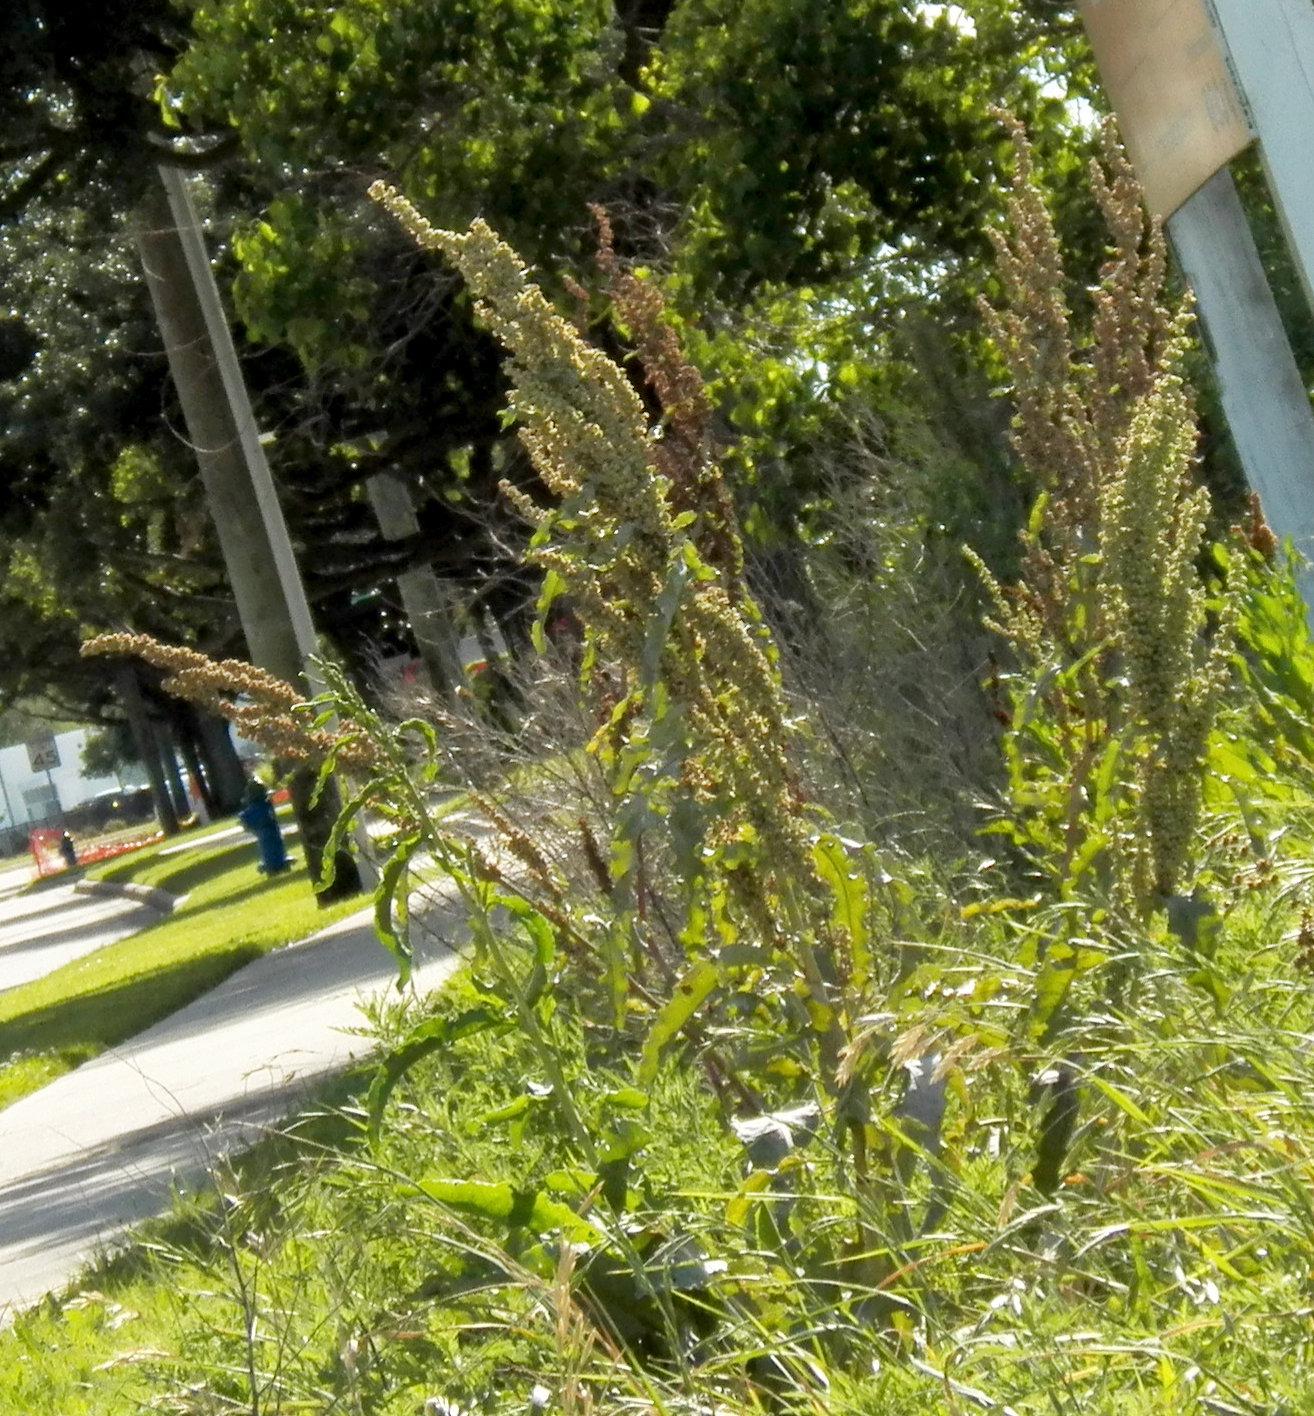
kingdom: Plantae
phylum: Tracheophyta
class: Magnoliopsida
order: Caryophyllales
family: Polygonaceae
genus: Rumex
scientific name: Rumex crispus
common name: Curled dock
